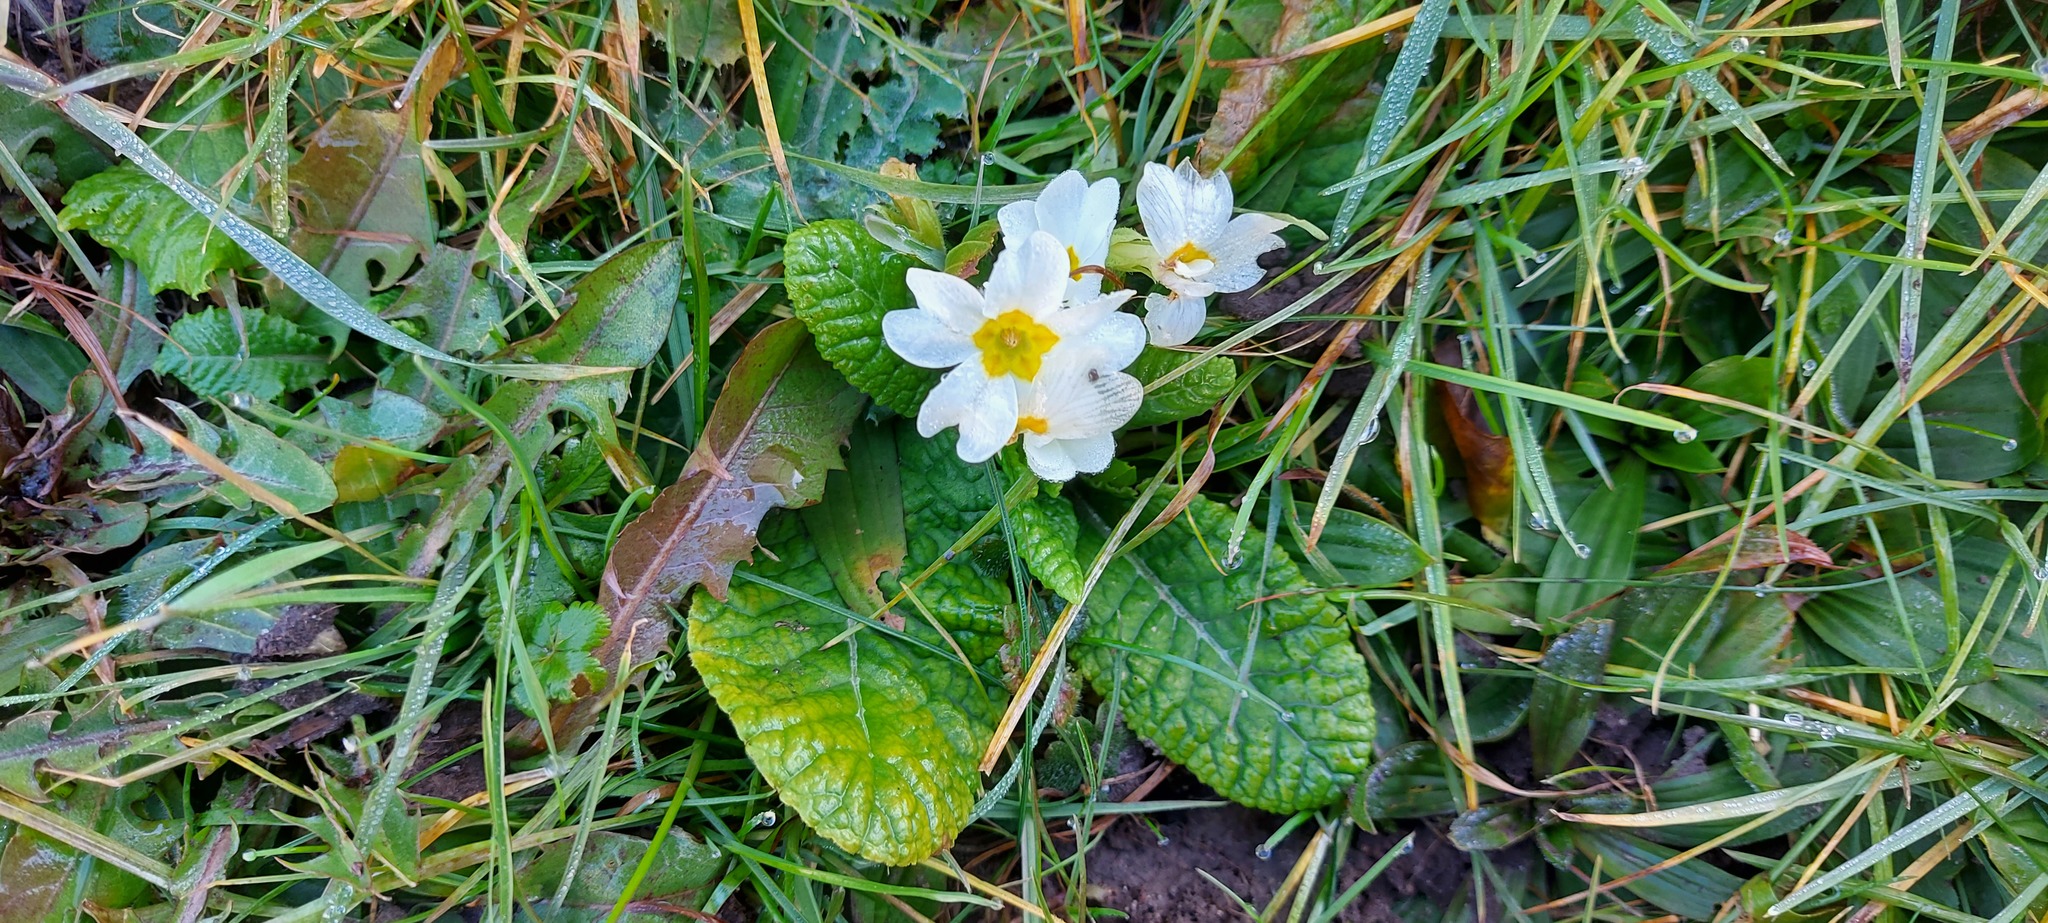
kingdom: Plantae
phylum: Tracheophyta
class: Magnoliopsida
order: Ericales
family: Primulaceae
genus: Primula
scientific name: Primula vulgaris
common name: Primrose
